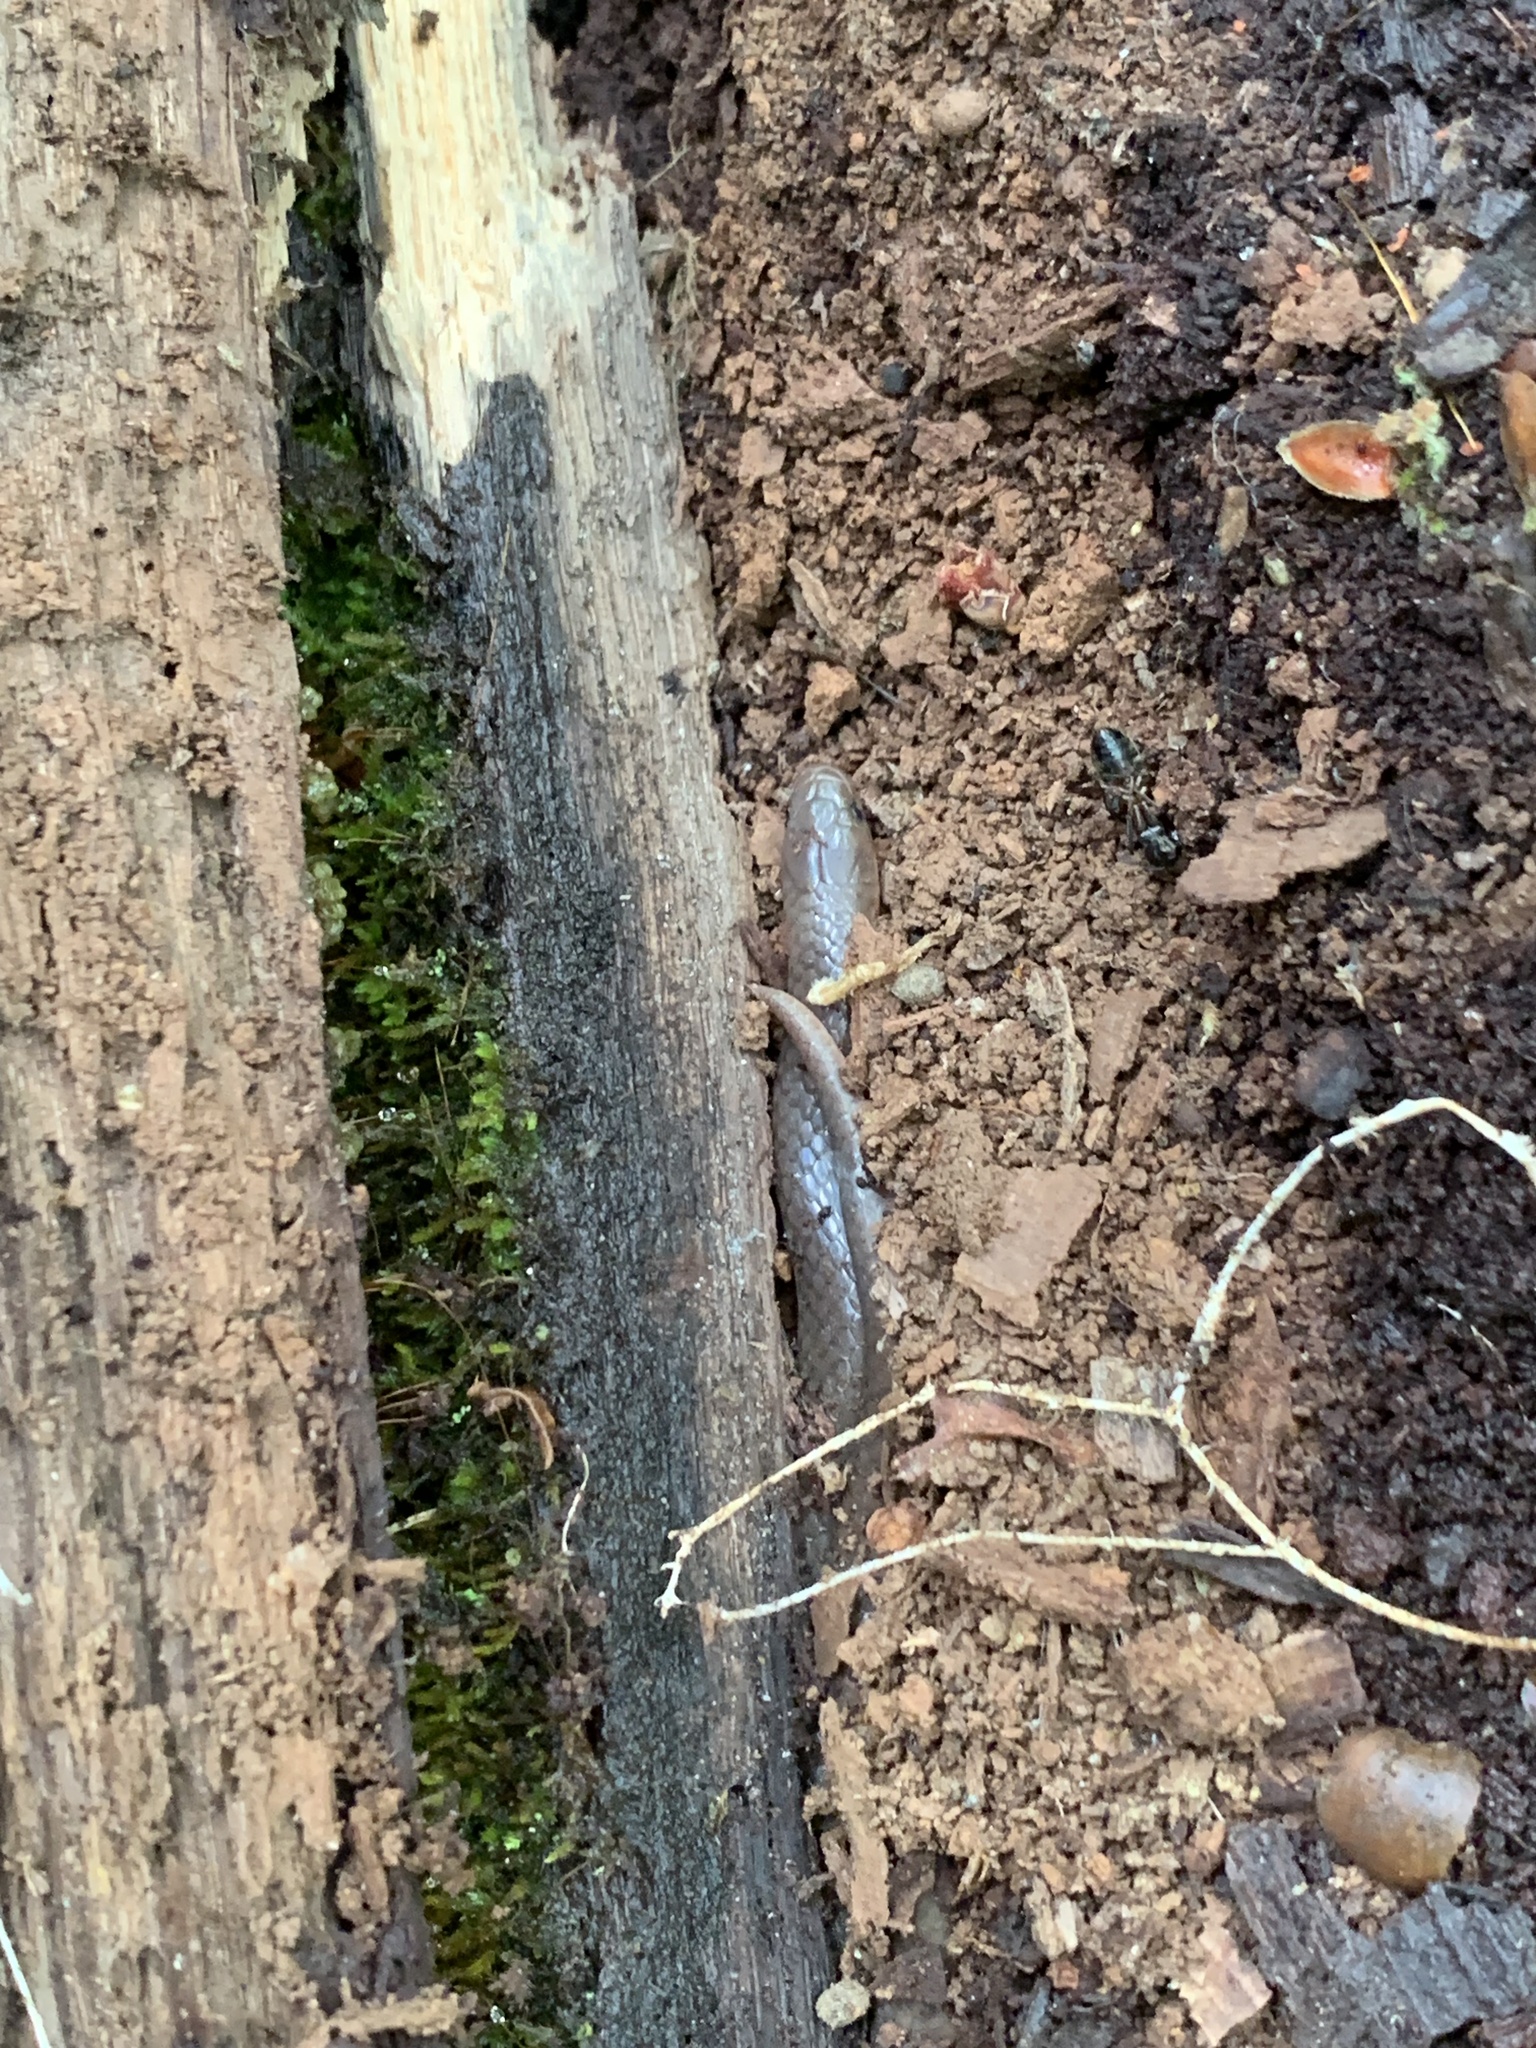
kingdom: Animalia
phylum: Chordata
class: Squamata
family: Colubridae
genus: Carphophis
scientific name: Carphophis amoenus
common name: Eastern worm snake
